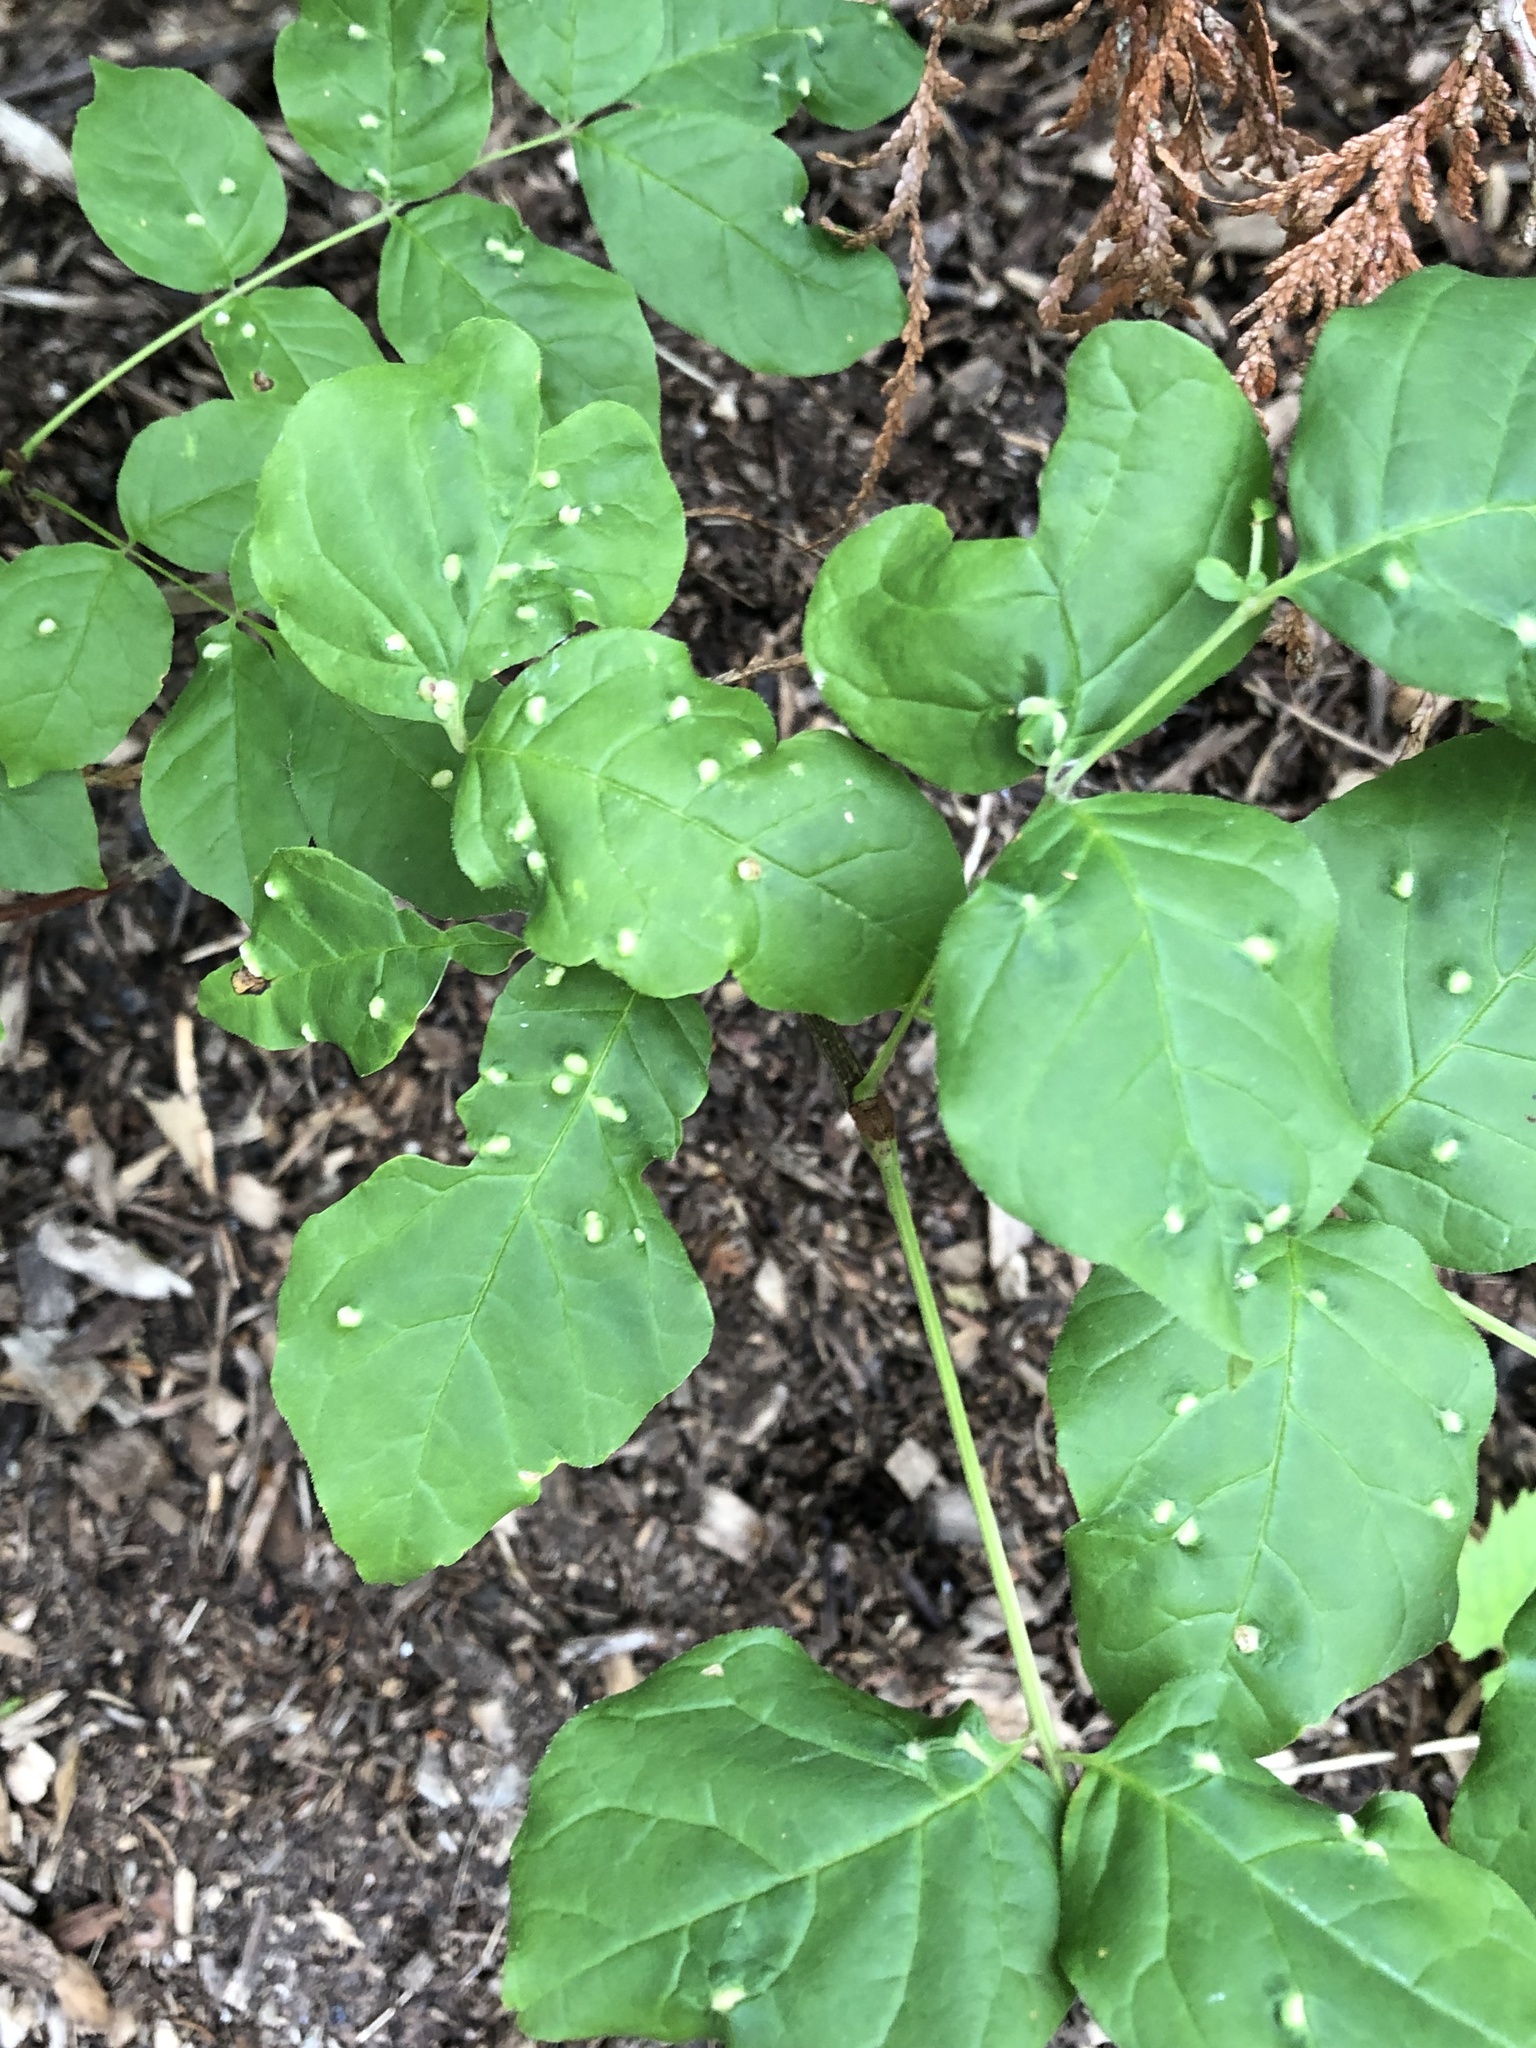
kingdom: Animalia
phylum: Arthropoda
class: Arachnida
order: Trombidiformes
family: Eriophyidae
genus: Aceria
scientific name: Aceria fraxinicola
